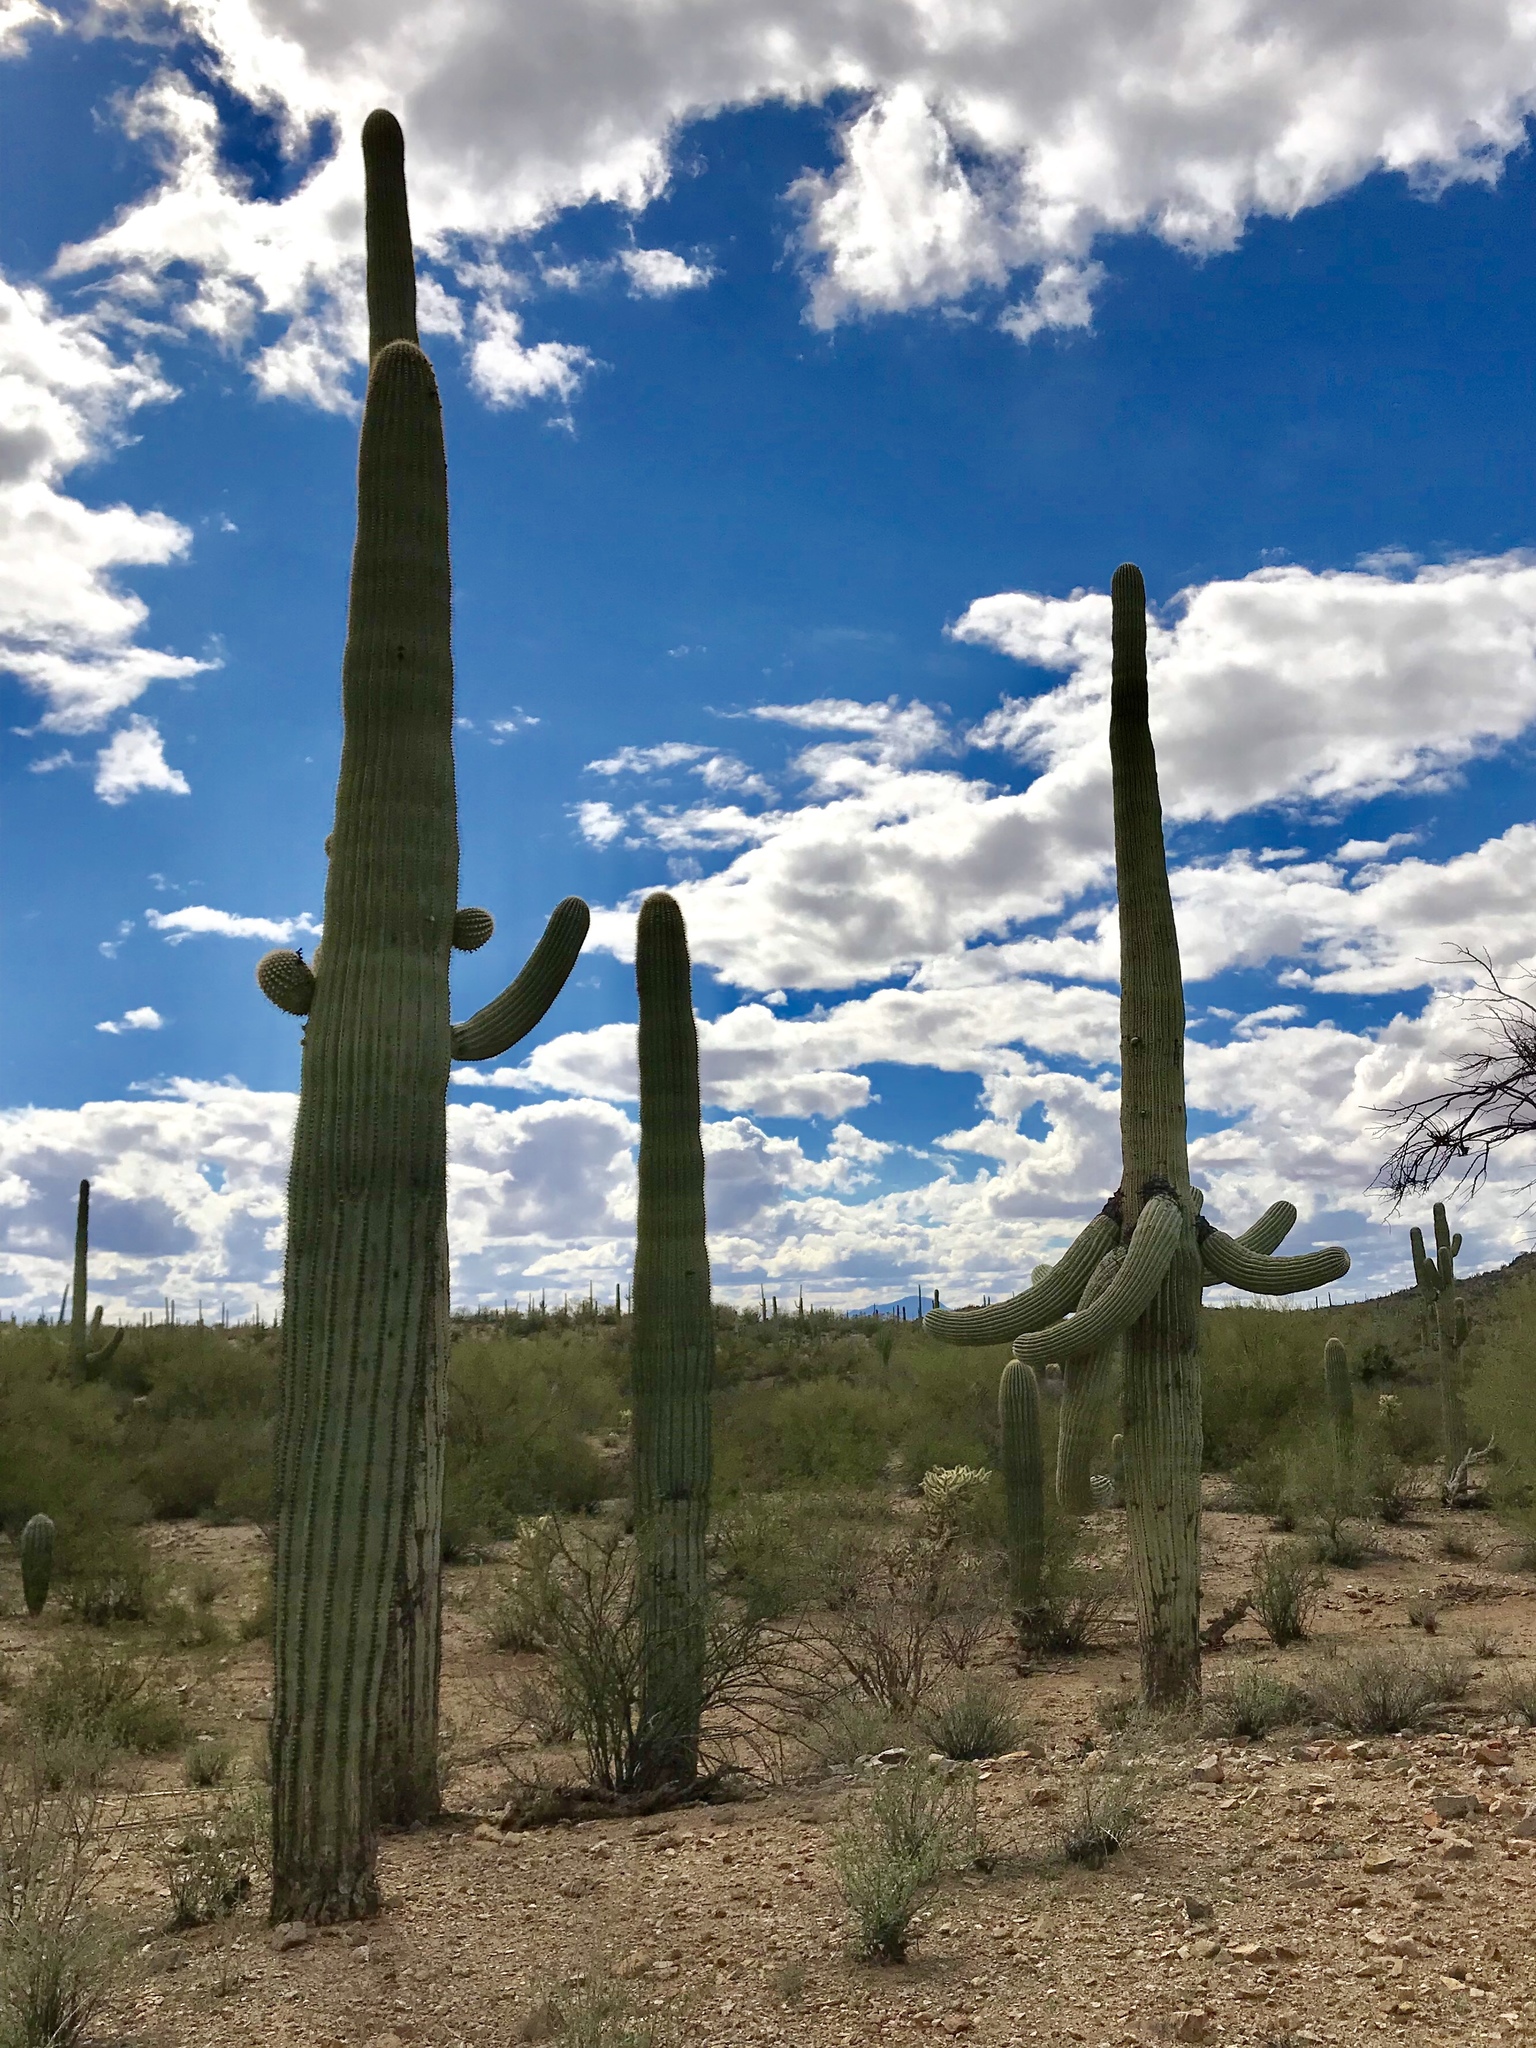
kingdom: Plantae
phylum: Tracheophyta
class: Magnoliopsida
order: Caryophyllales
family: Cactaceae
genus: Carnegiea
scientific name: Carnegiea gigantea
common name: Saguaro
